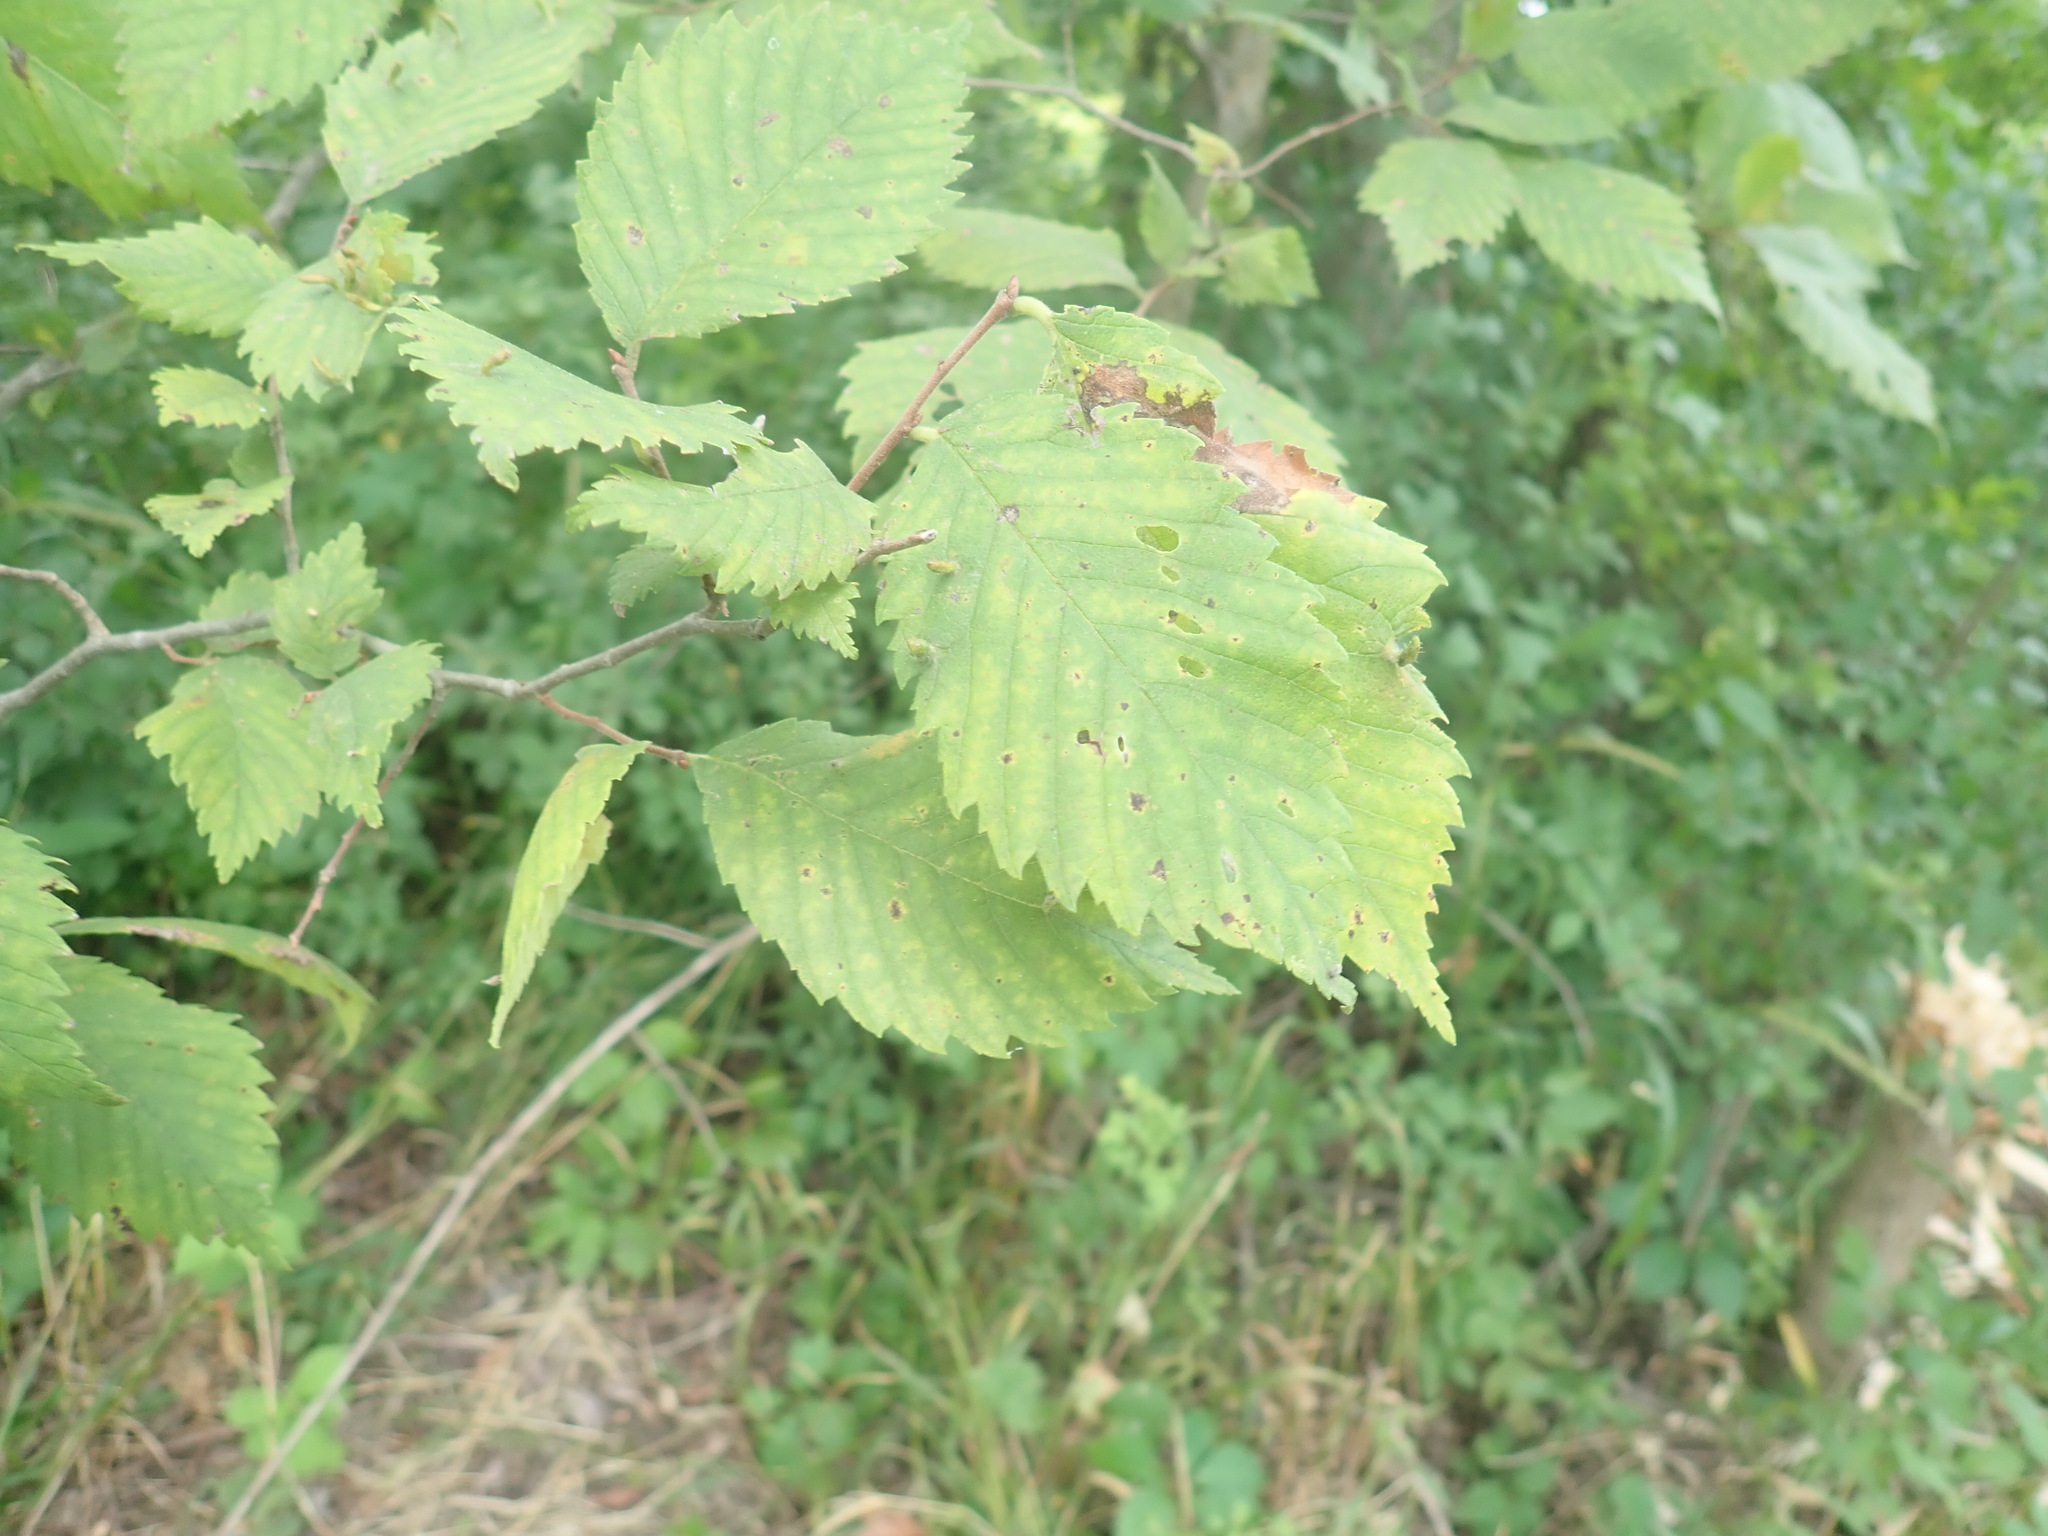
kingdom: Plantae
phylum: Tracheophyta
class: Magnoliopsida
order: Rosales
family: Ulmaceae
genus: Ulmus
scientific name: Ulmus
